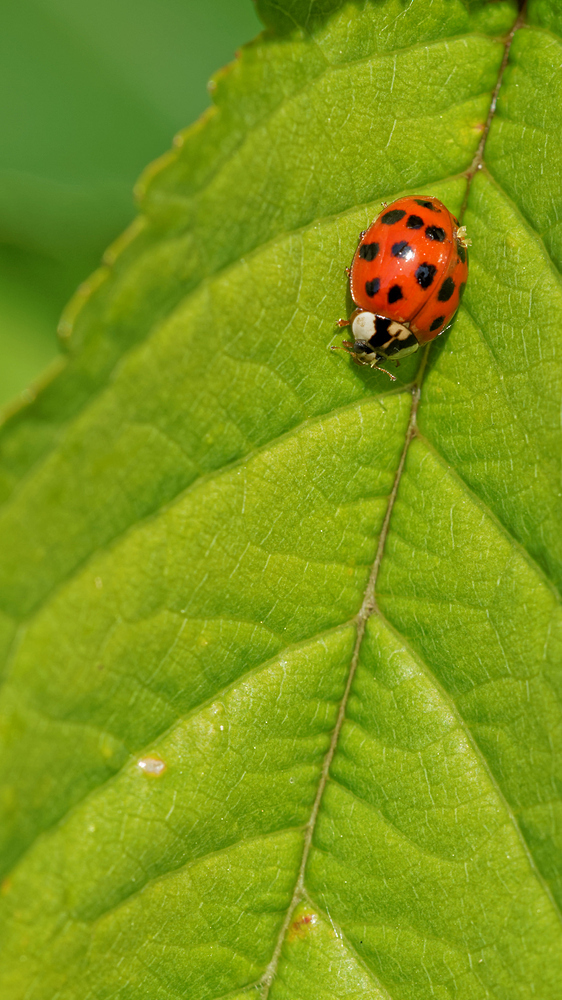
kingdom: Animalia
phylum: Arthropoda
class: Insecta
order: Coleoptera
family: Coccinellidae
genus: Harmonia
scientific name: Harmonia axyridis
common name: Harlequin ladybird
